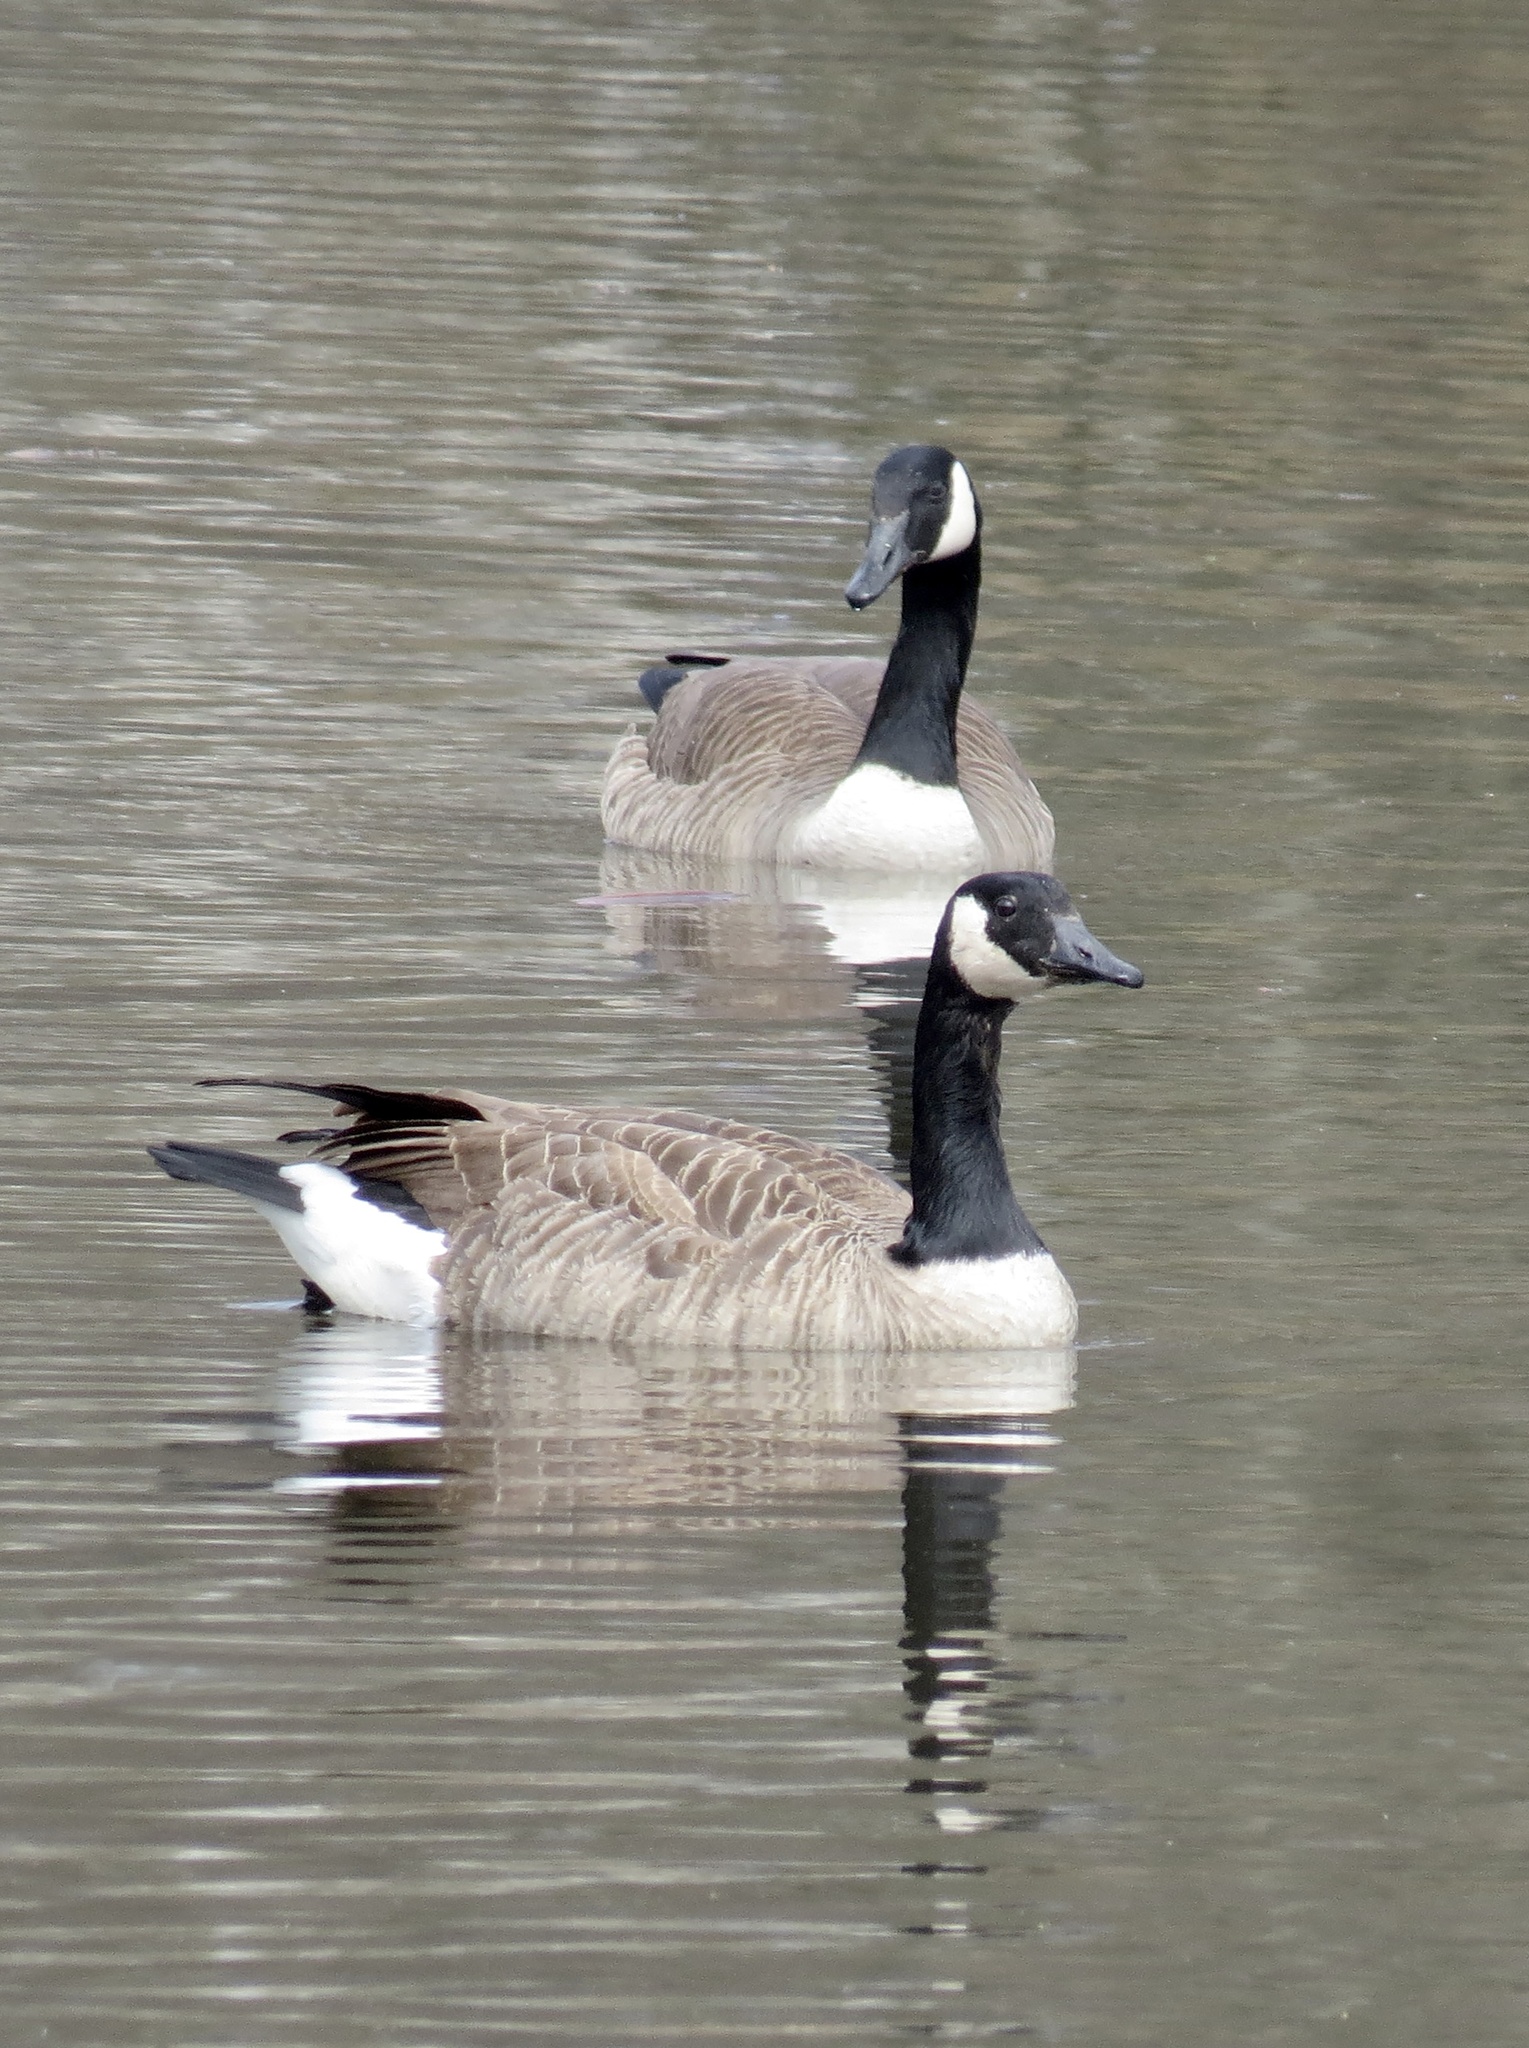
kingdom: Animalia
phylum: Chordata
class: Aves
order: Anseriformes
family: Anatidae
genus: Branta
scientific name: Branta canadensis
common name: Canada goose
